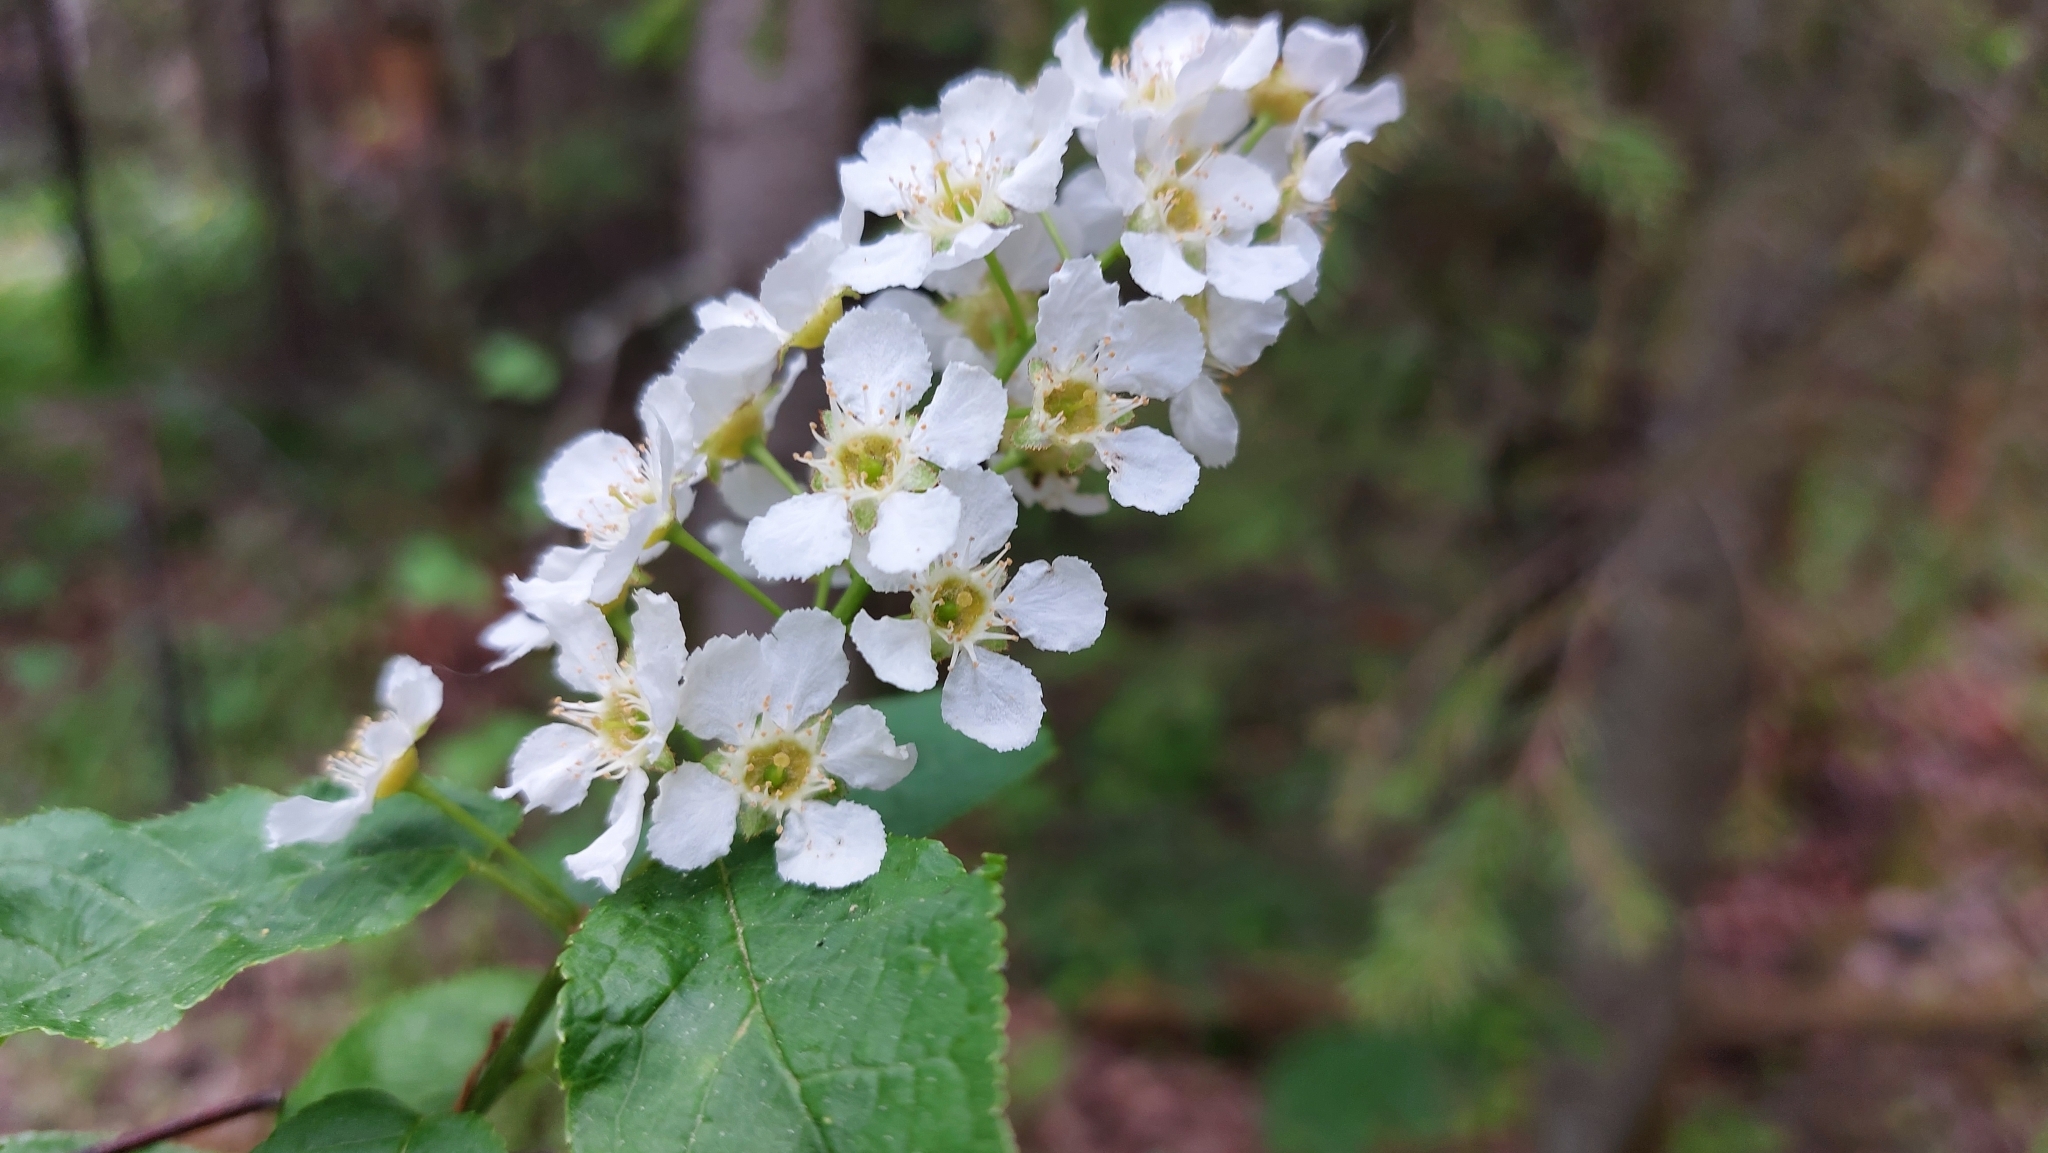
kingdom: Plantae
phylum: Tracheophyta
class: Magnoliopsida
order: Rosales
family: Rosaceae
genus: Prunus
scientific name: Prunus padus
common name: Bird cherry
